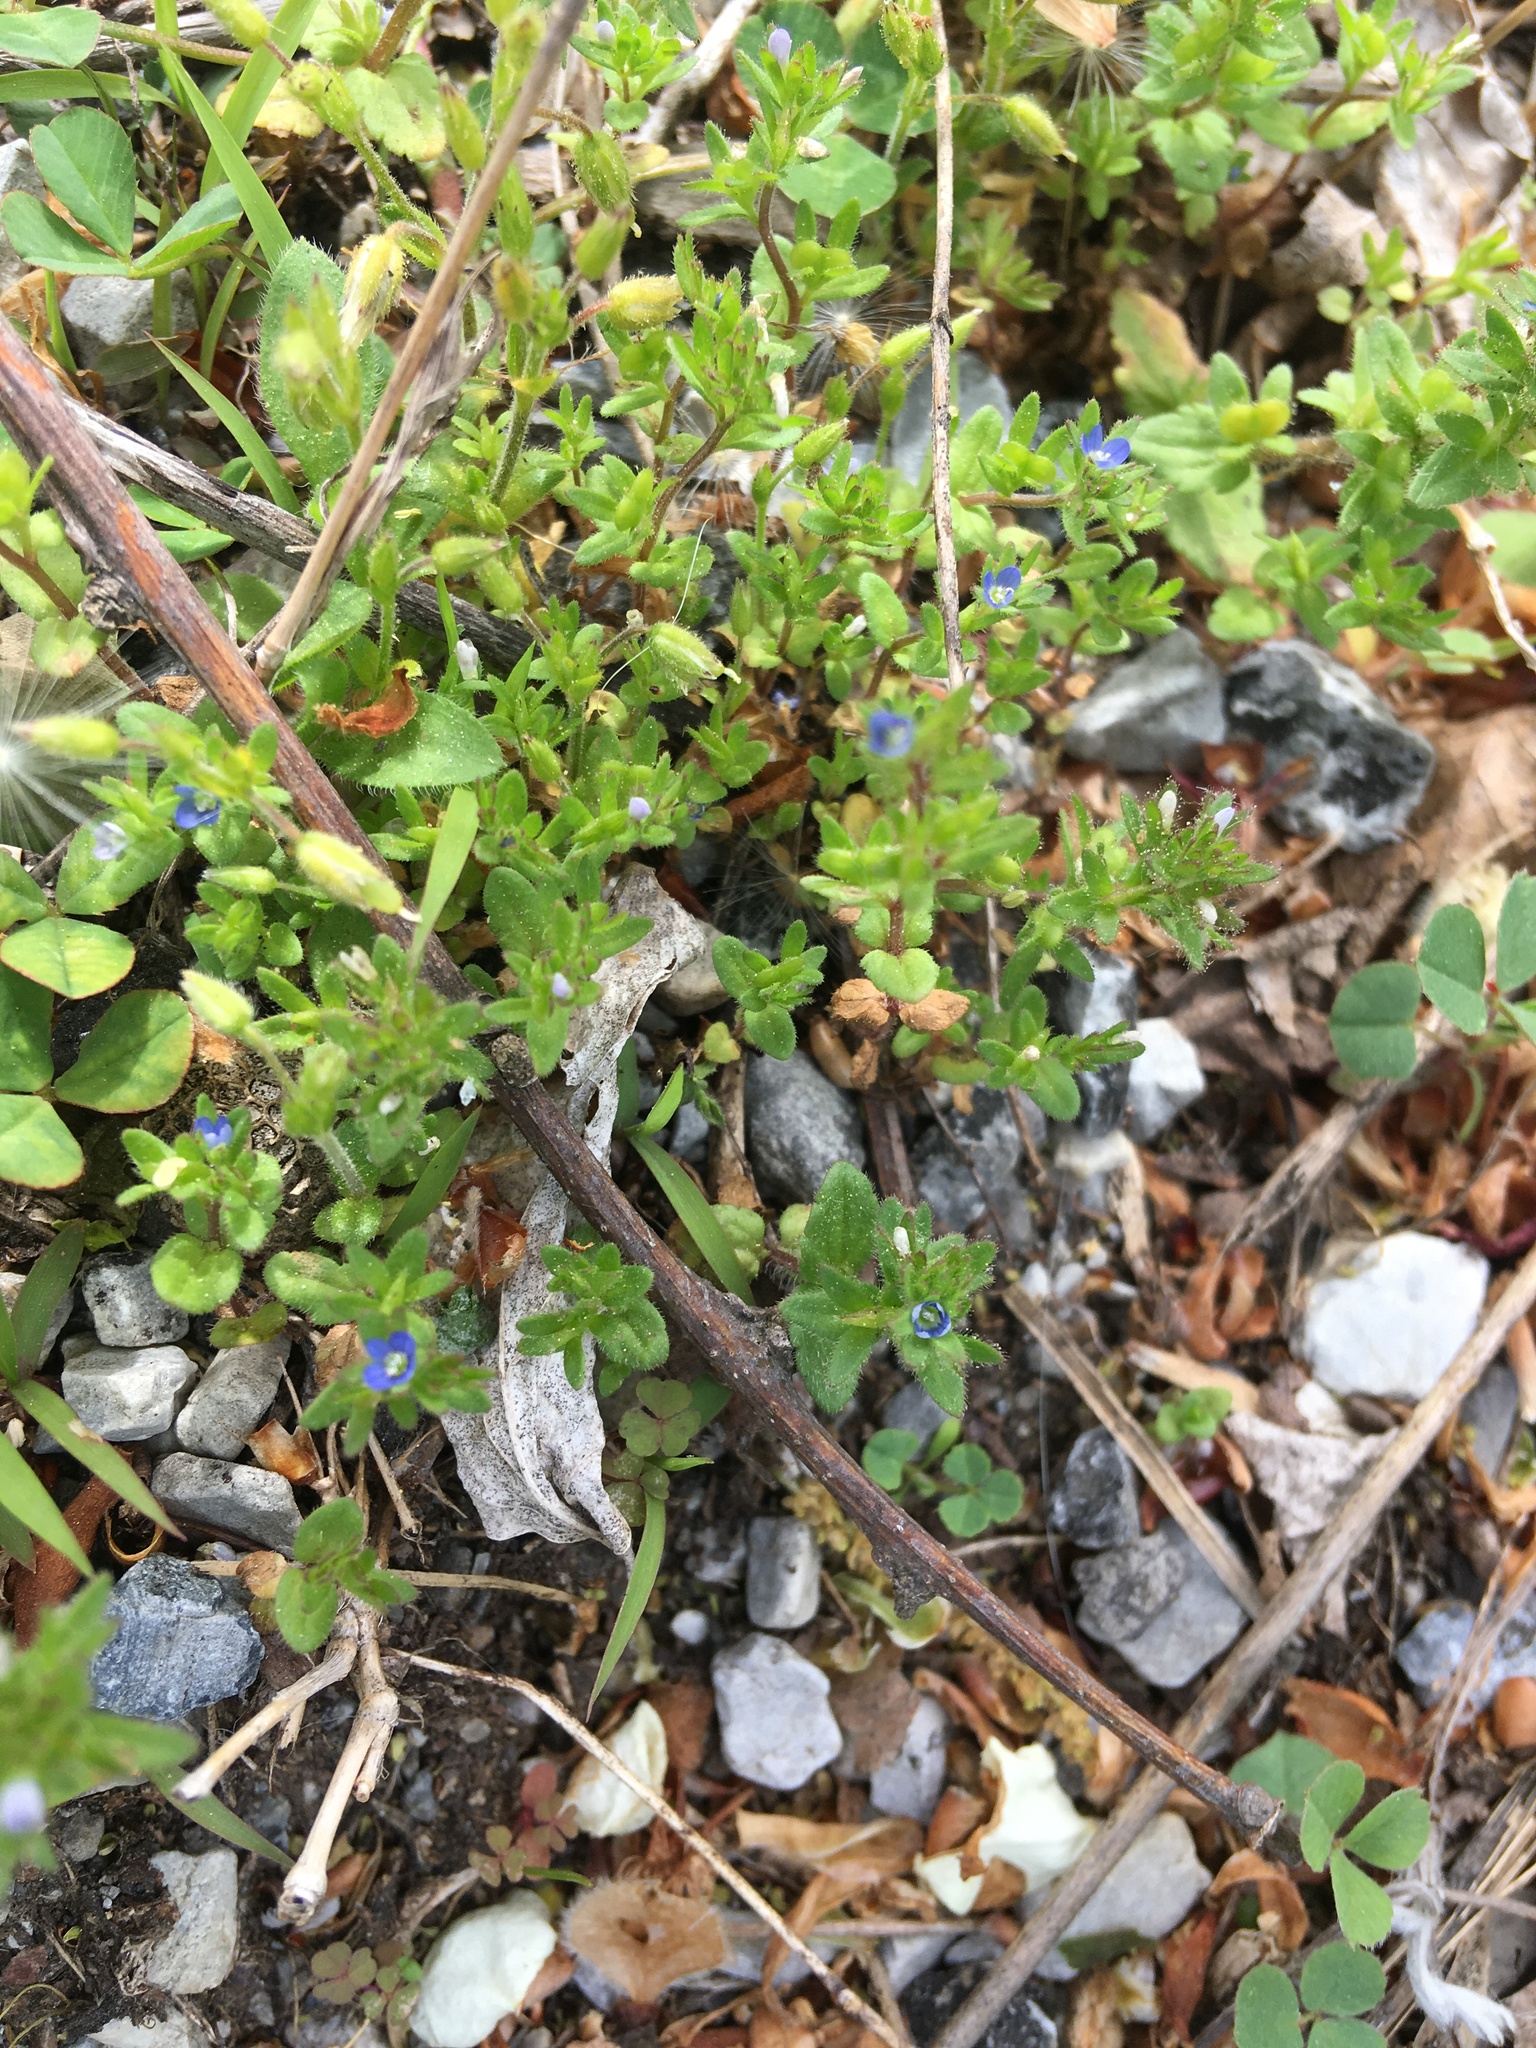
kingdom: Plantae
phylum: Tracheophyta
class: Magnoliopsida
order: Lamiales
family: Plantaginaceae
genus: Veronica
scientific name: Veronica arvensis
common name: Corn speedwell
